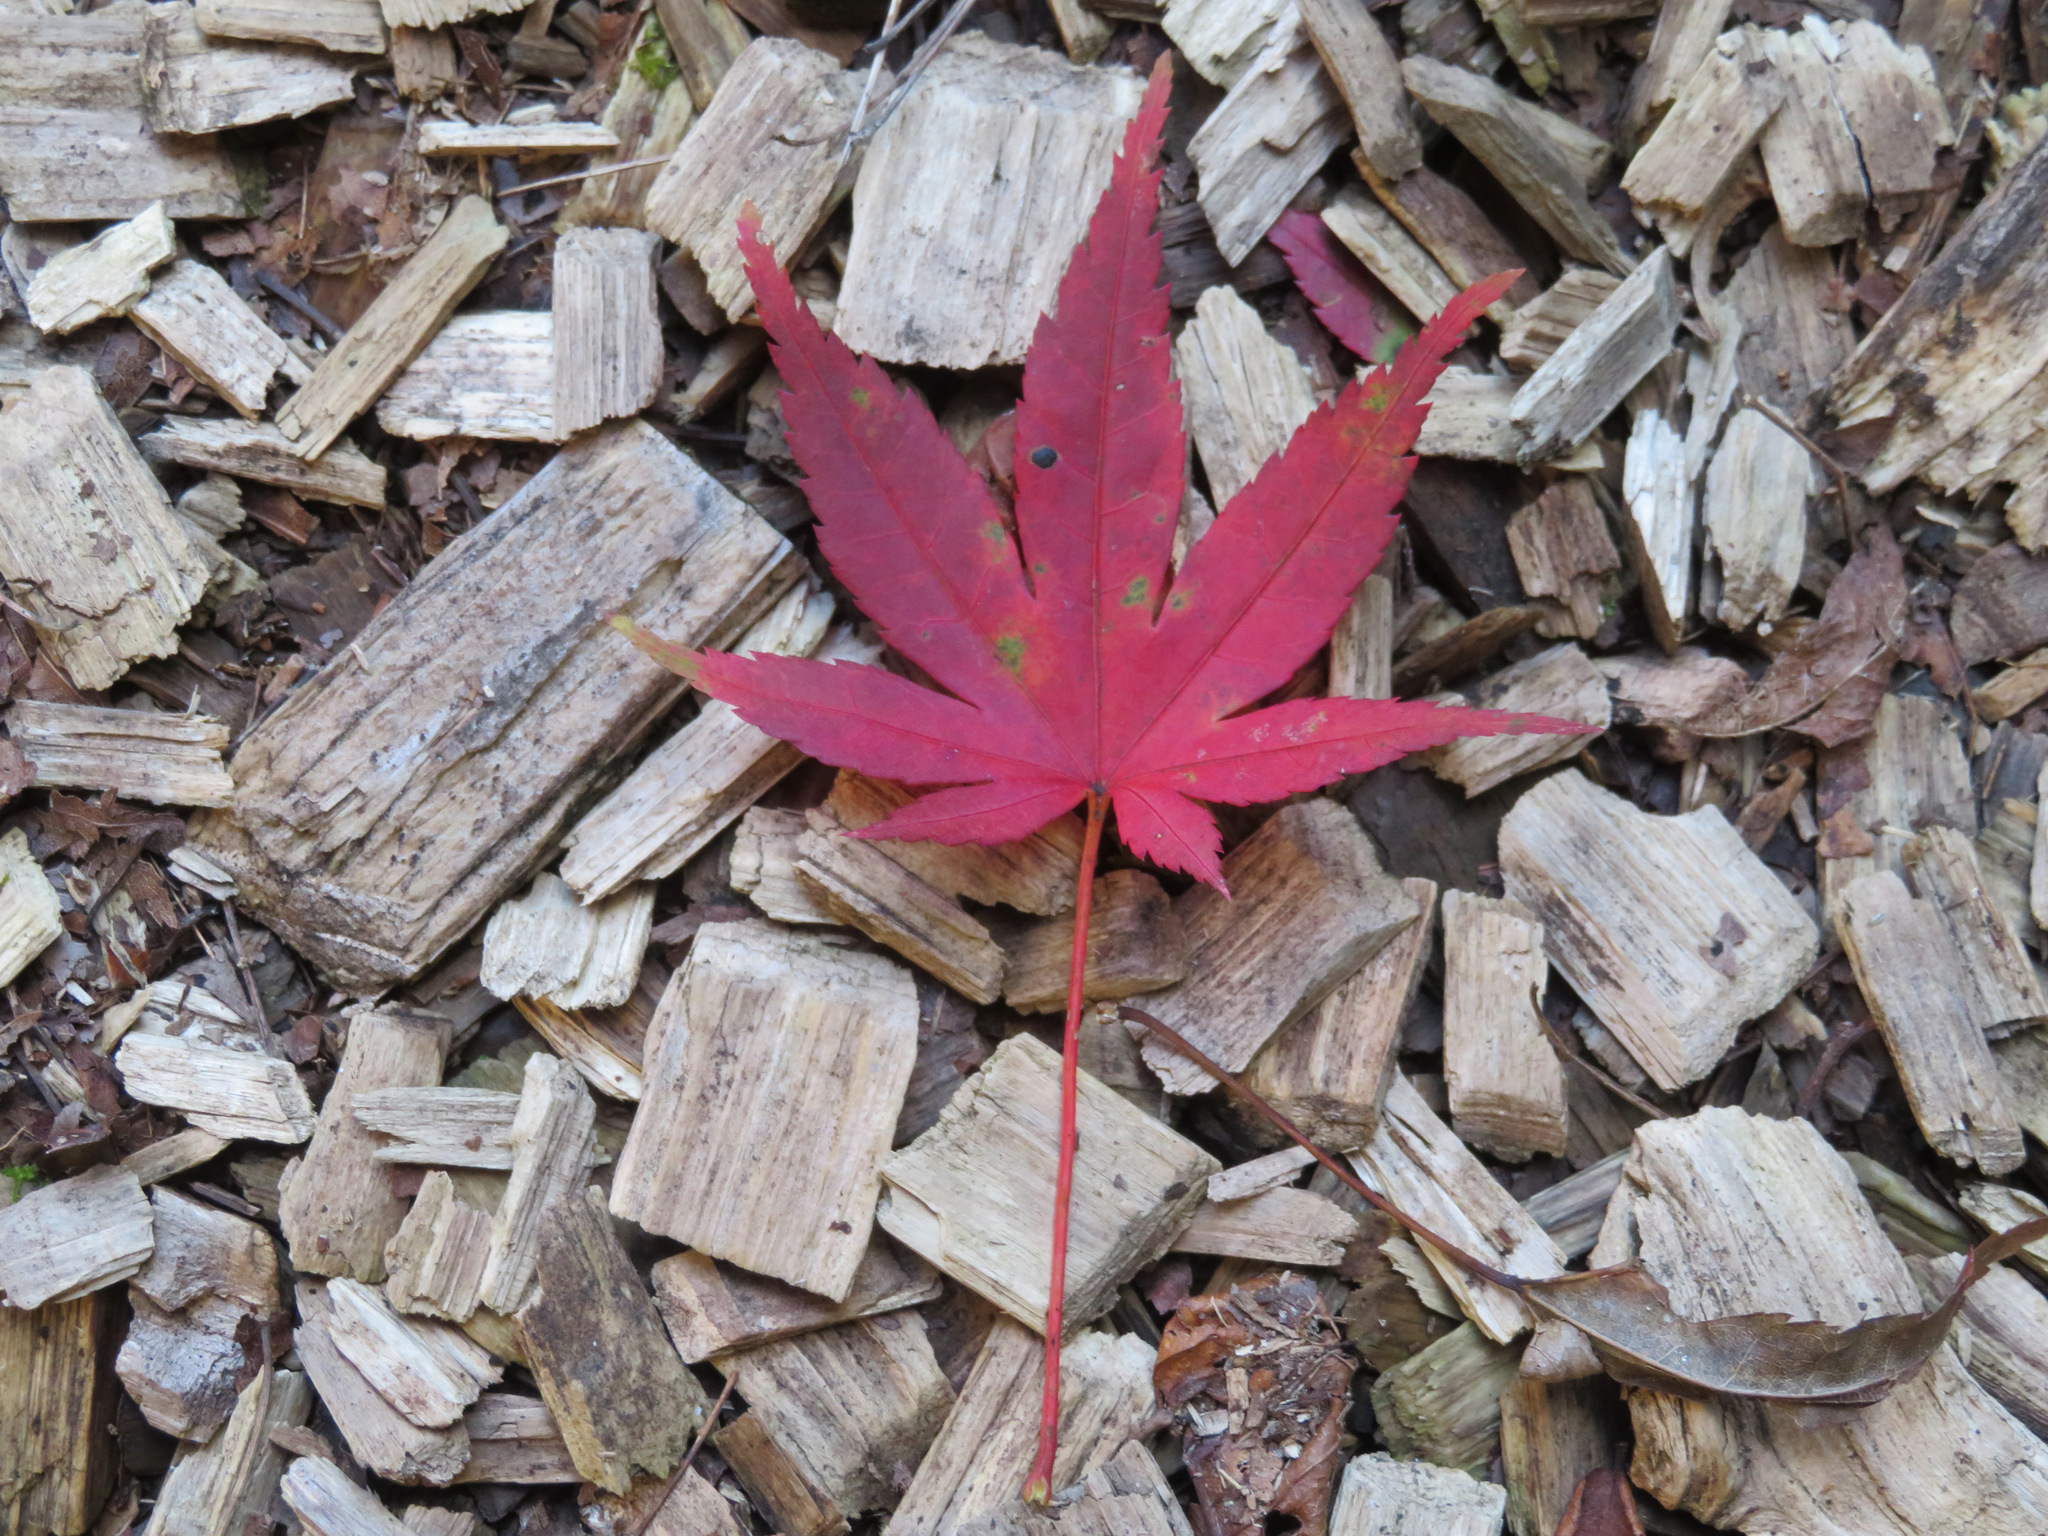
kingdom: Plantae
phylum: Tracheophyta
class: Magnoliopsida
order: Sapindales
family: Sapindaceae
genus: Acer
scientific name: Acer palmatum
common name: Japanese maple
